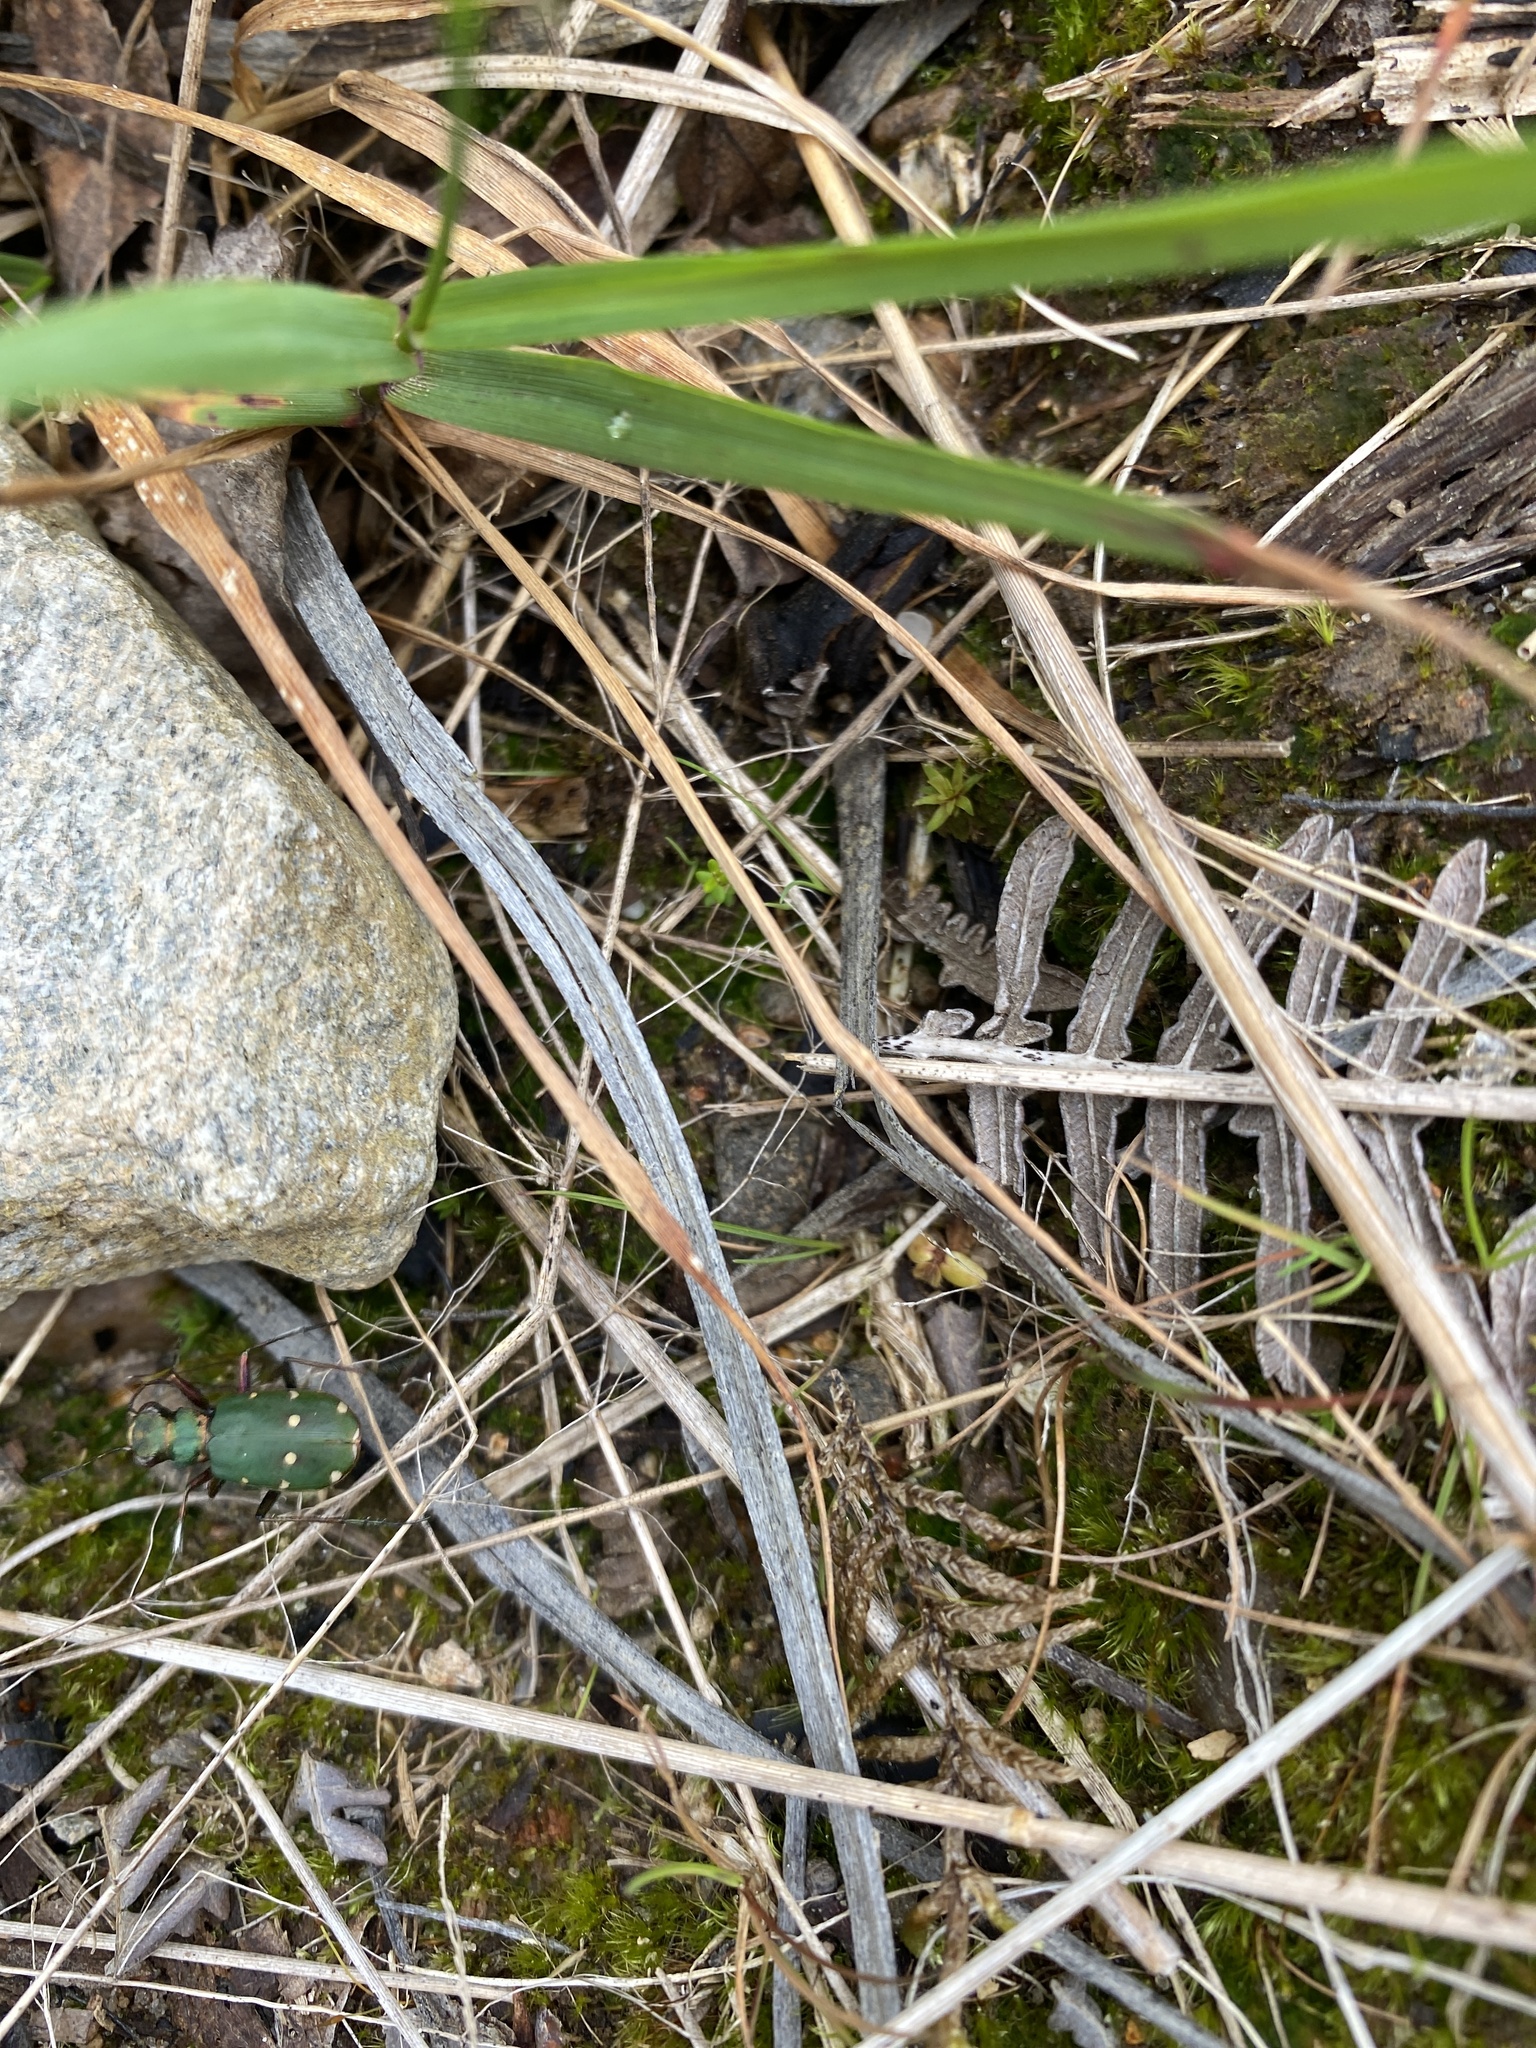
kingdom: Animalia
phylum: Arthropoda
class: Insecta
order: Coleoptera
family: Carabidae
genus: Cicindela
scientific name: Cicindela campestris
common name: Common tiger beetle
